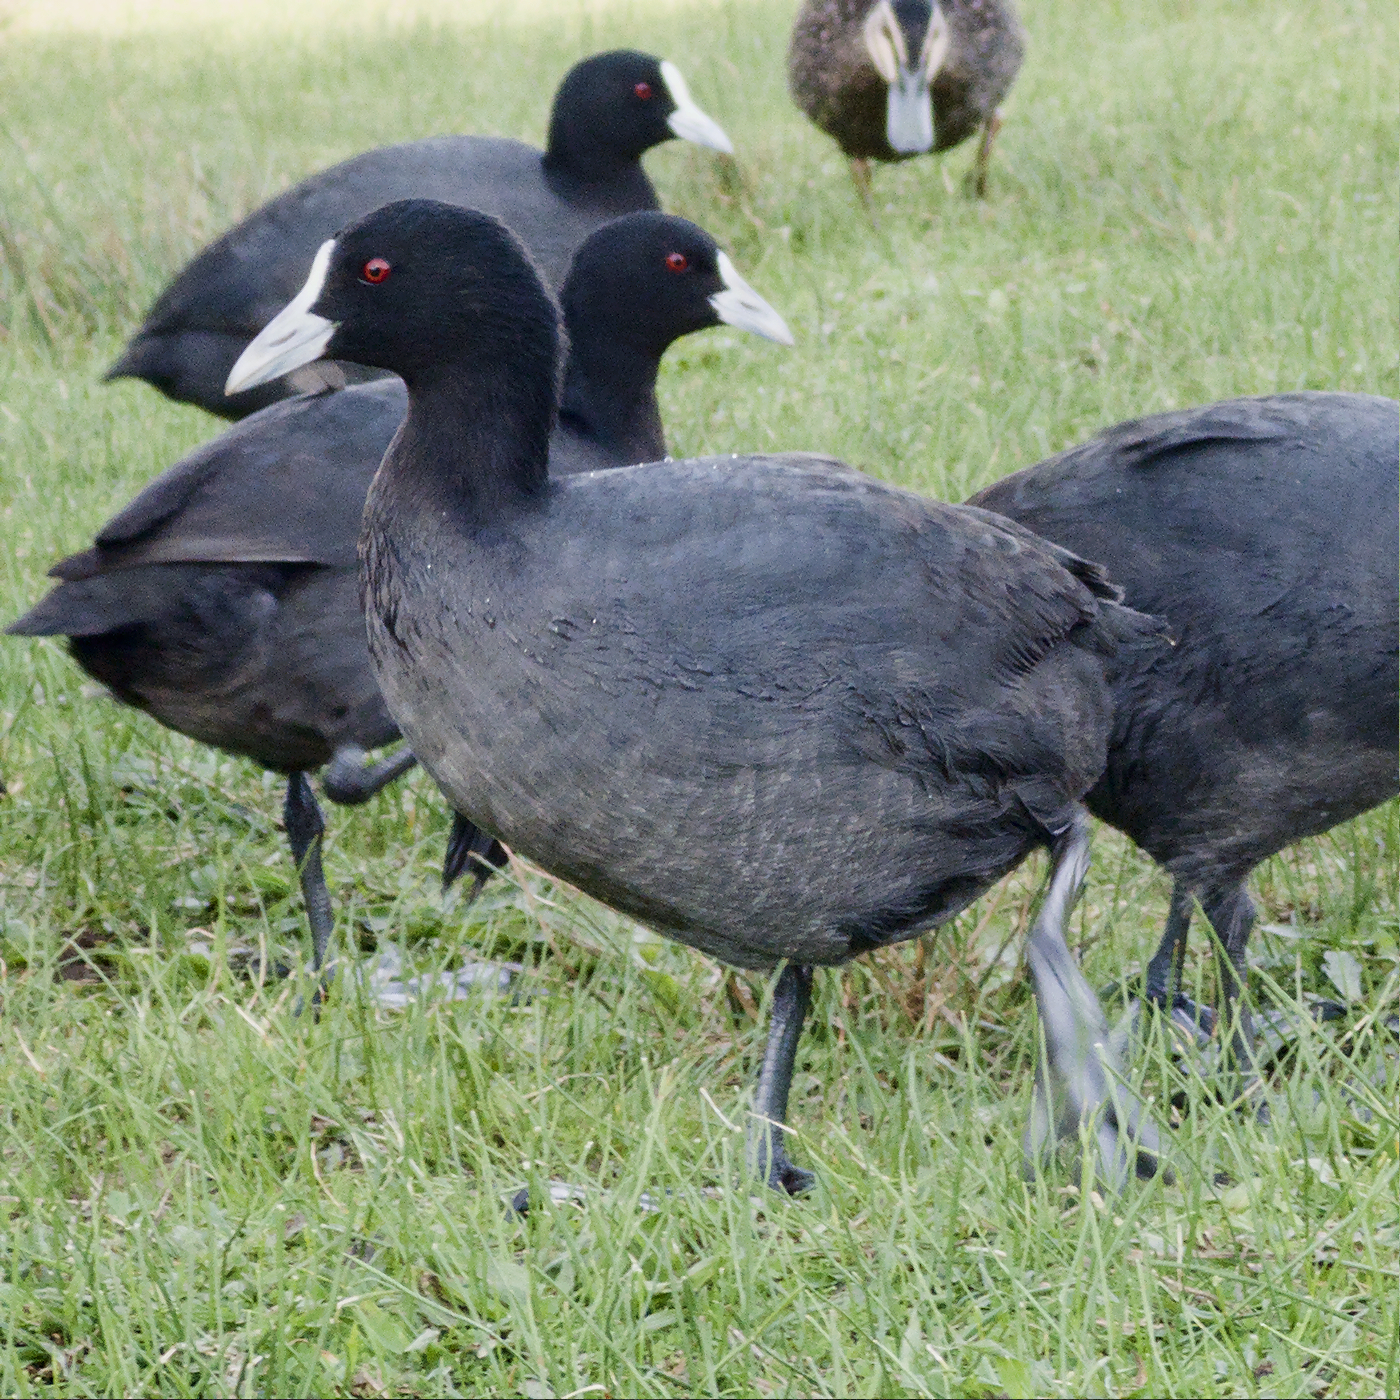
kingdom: Animalia
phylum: Chordata
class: Aves
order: Gruiformes
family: Rallidae
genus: Fulica
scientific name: Fulica atra
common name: Eurasian coot
